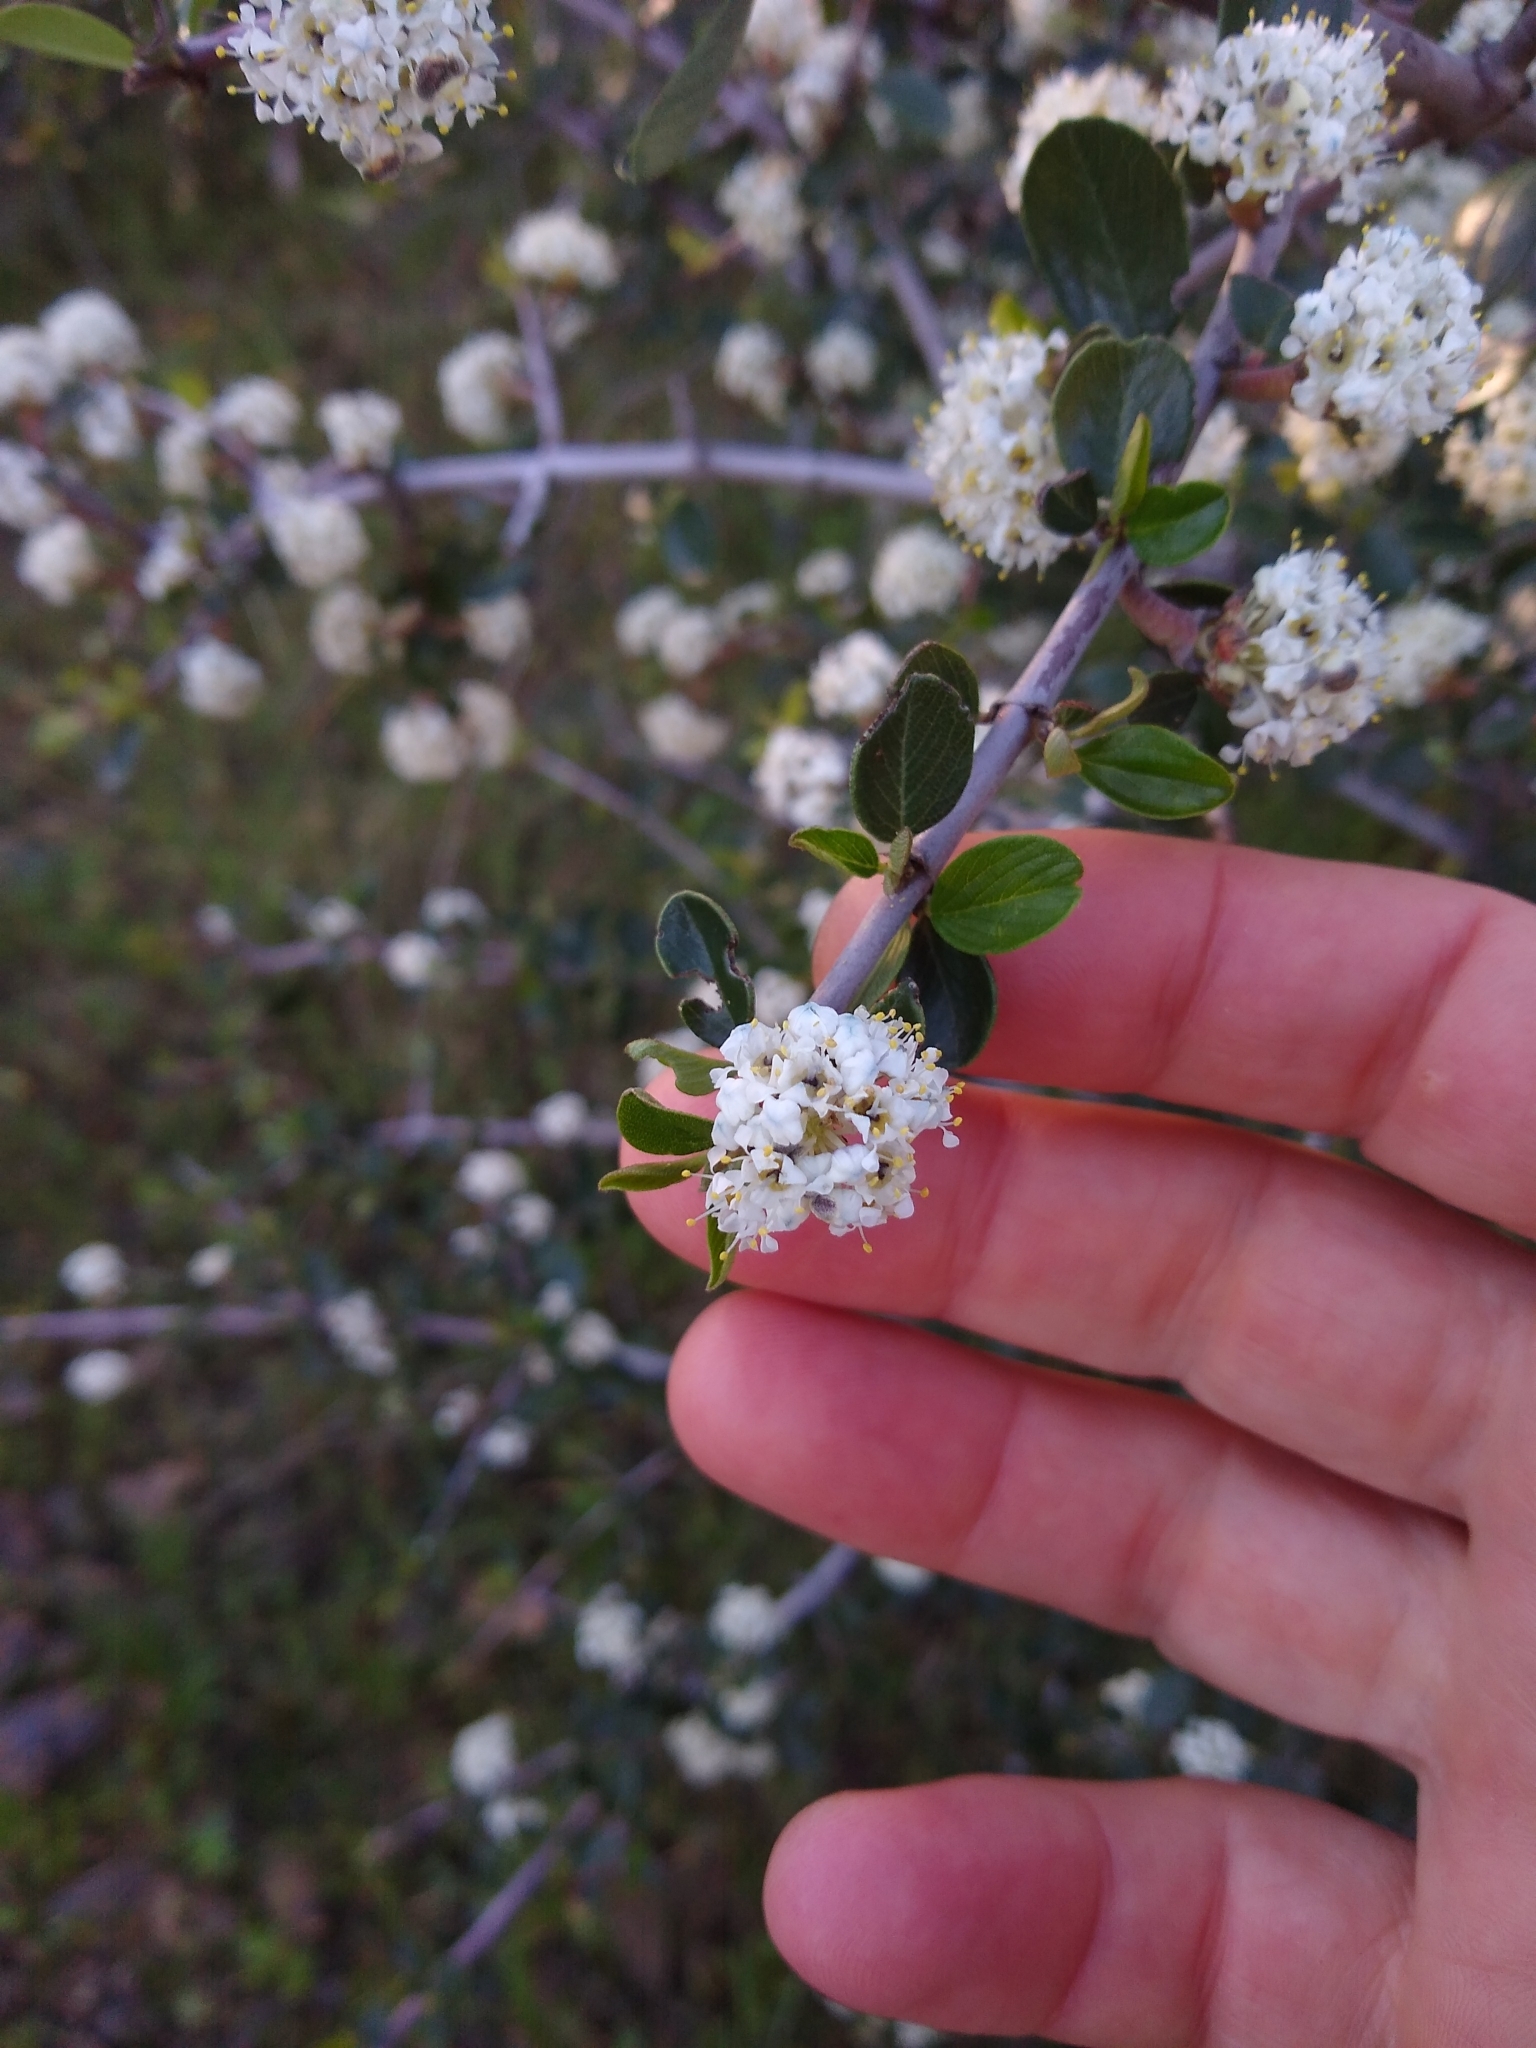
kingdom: Plantae
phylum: Tracheophyta
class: Magnoliopsida
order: Rosales
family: Rhamnaceae
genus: Ceanothus
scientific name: Ceanothus cuneatus
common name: Cuneate ceanothus
